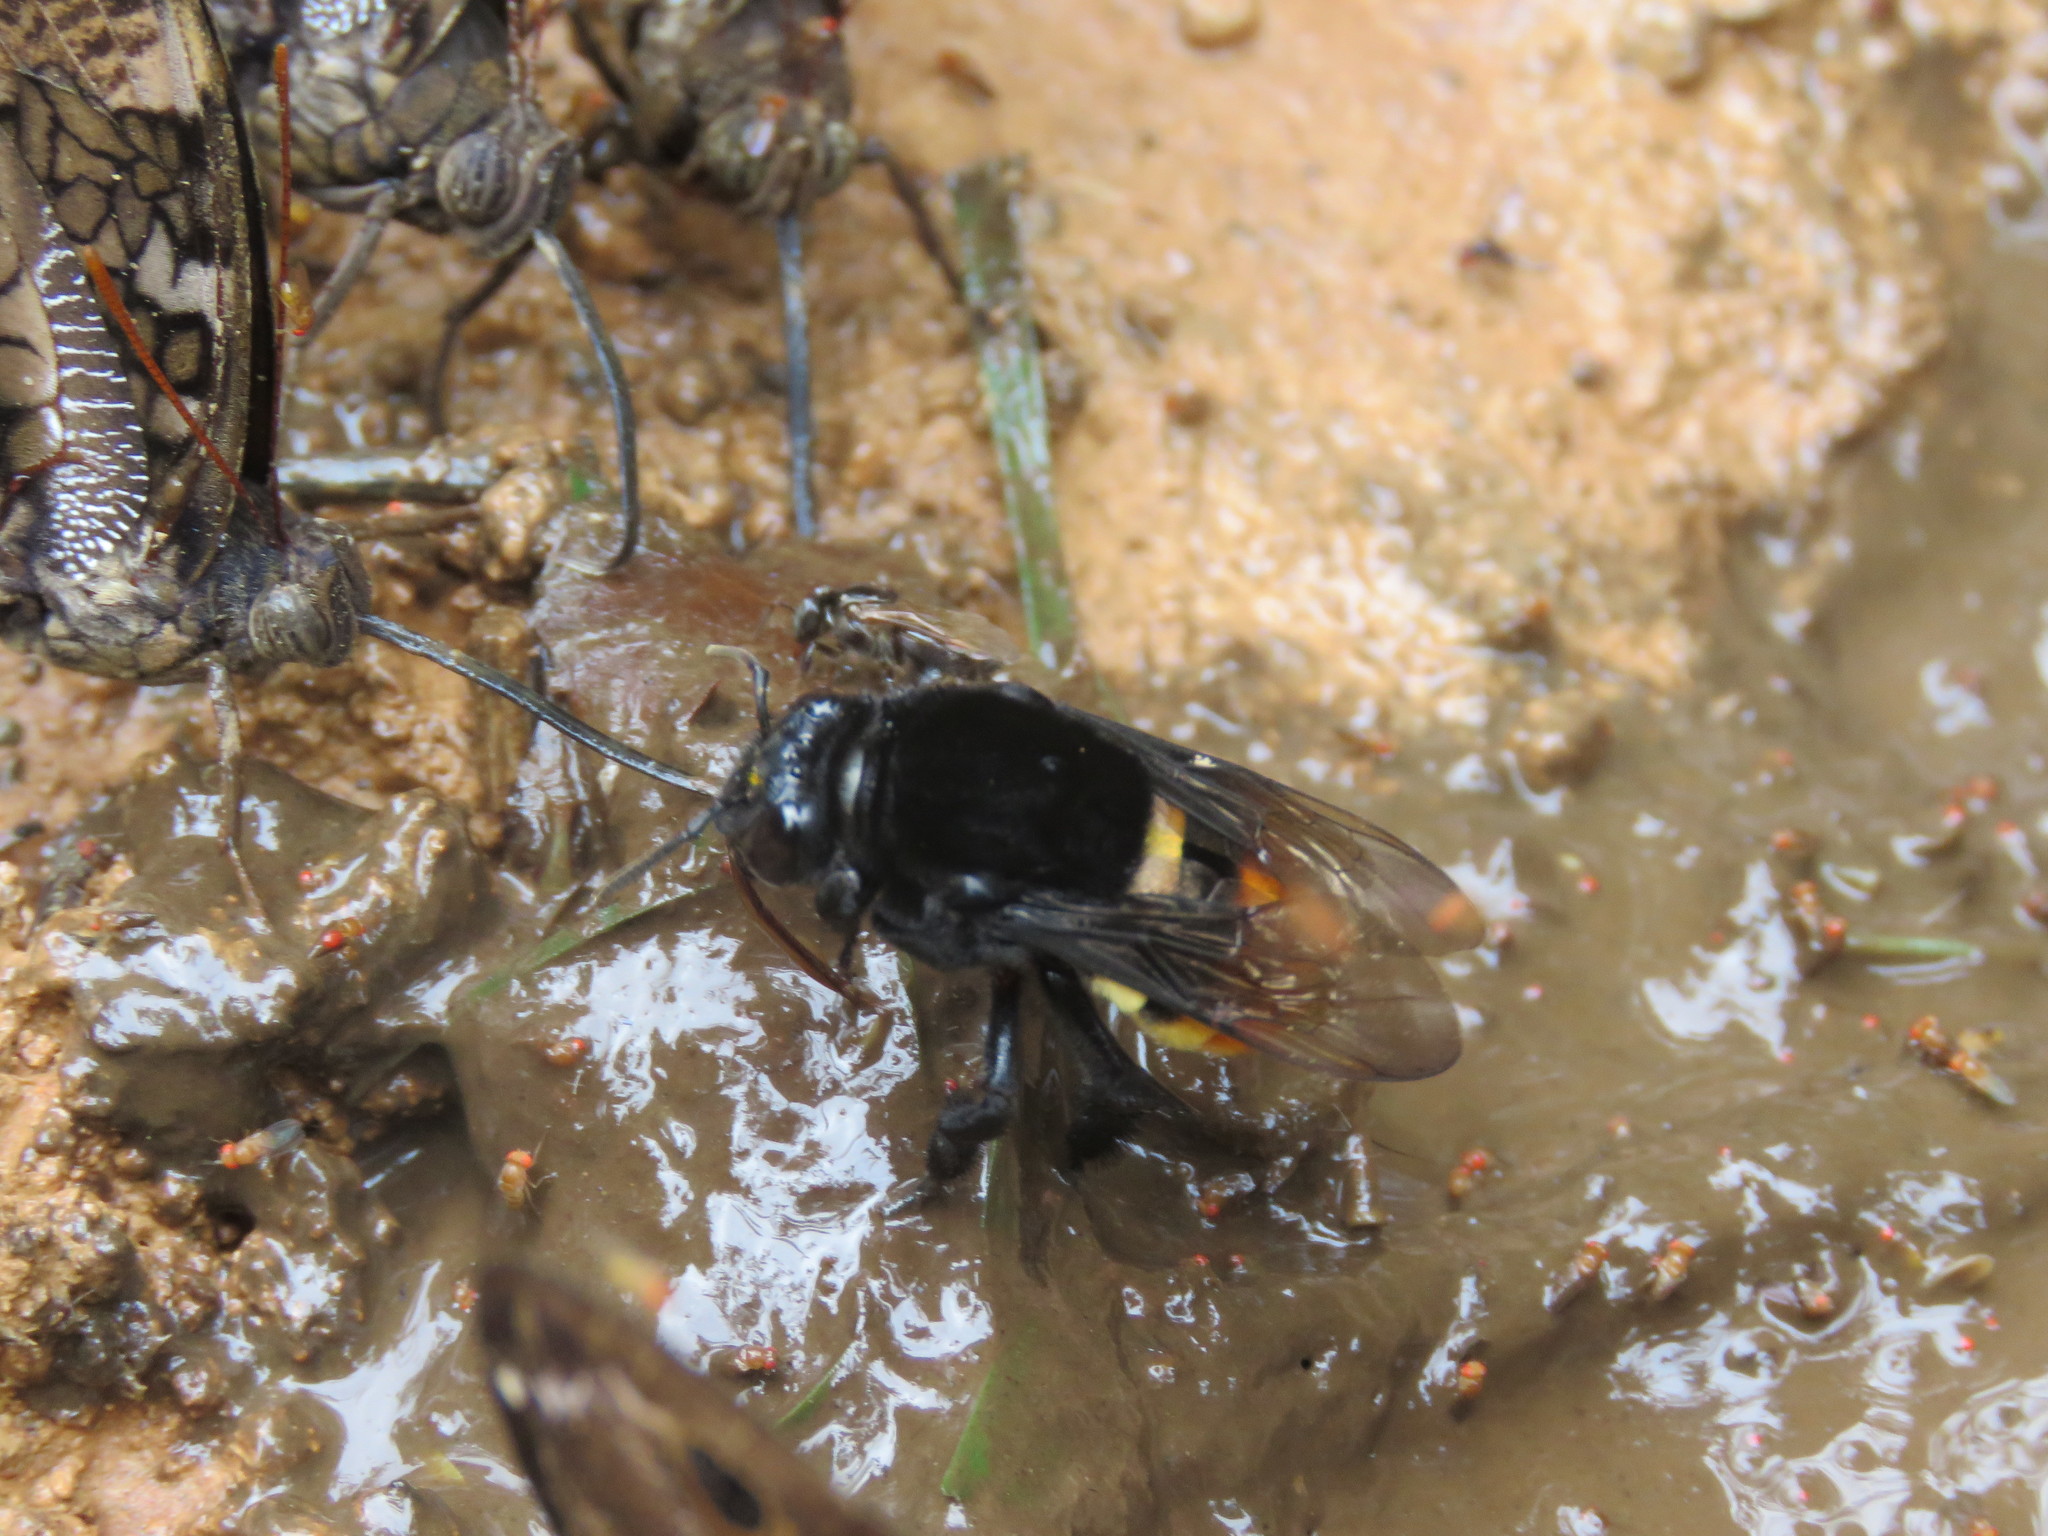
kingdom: Animalia
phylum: Arthropoda
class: Insecta
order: Hymenoptera
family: Apidae
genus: Eulaema
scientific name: Eulaema pseudocingulata
